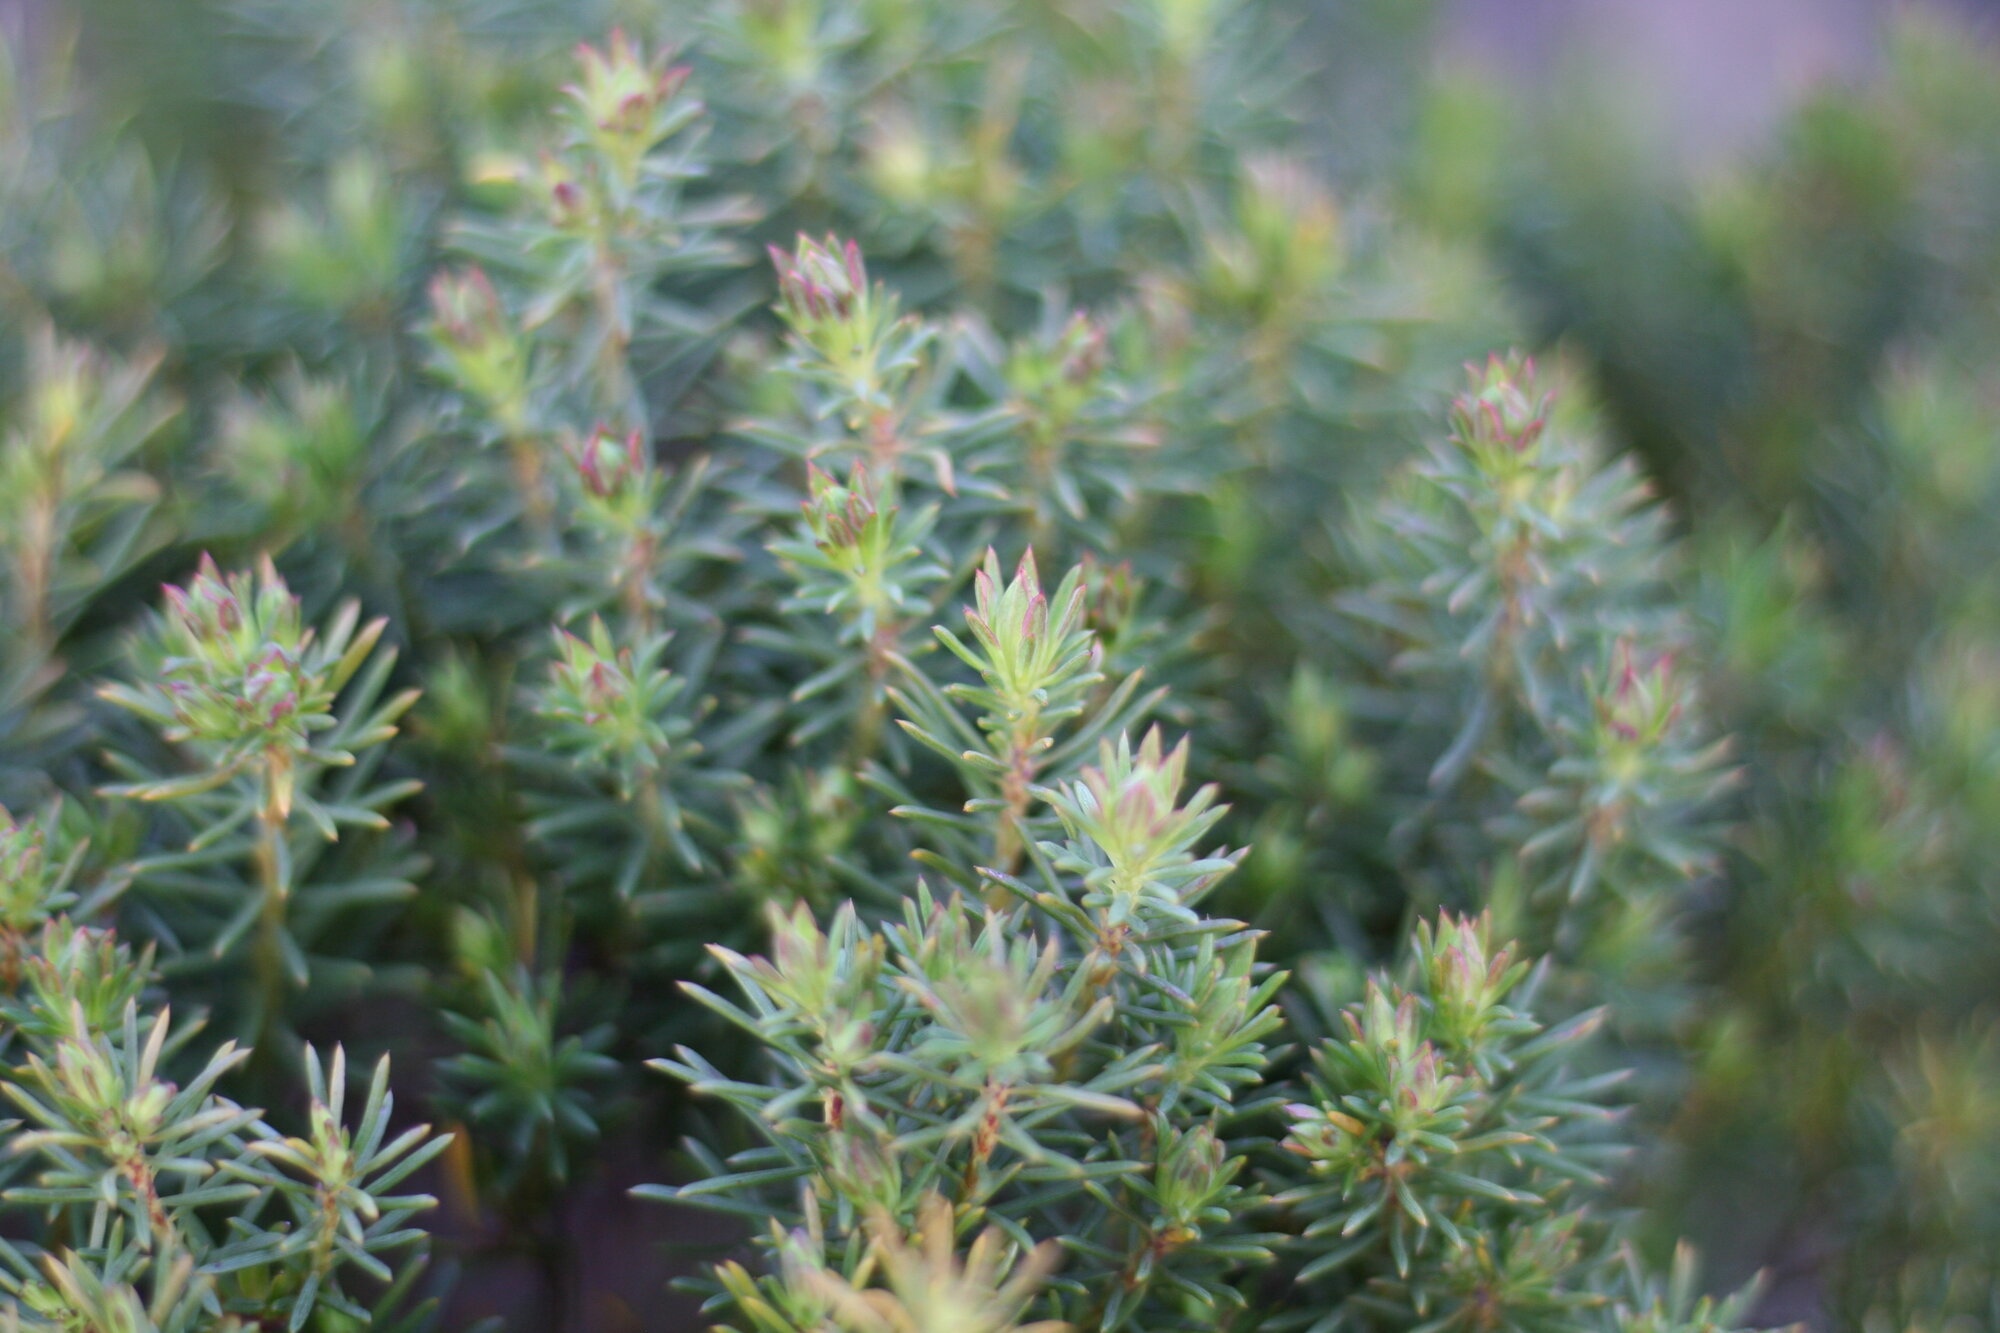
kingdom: Plantae
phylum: Tracheophyta
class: Magnoliopsida
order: Malvales
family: Thymelaeaceae
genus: Gnidia
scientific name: Gnidia pinifolia
